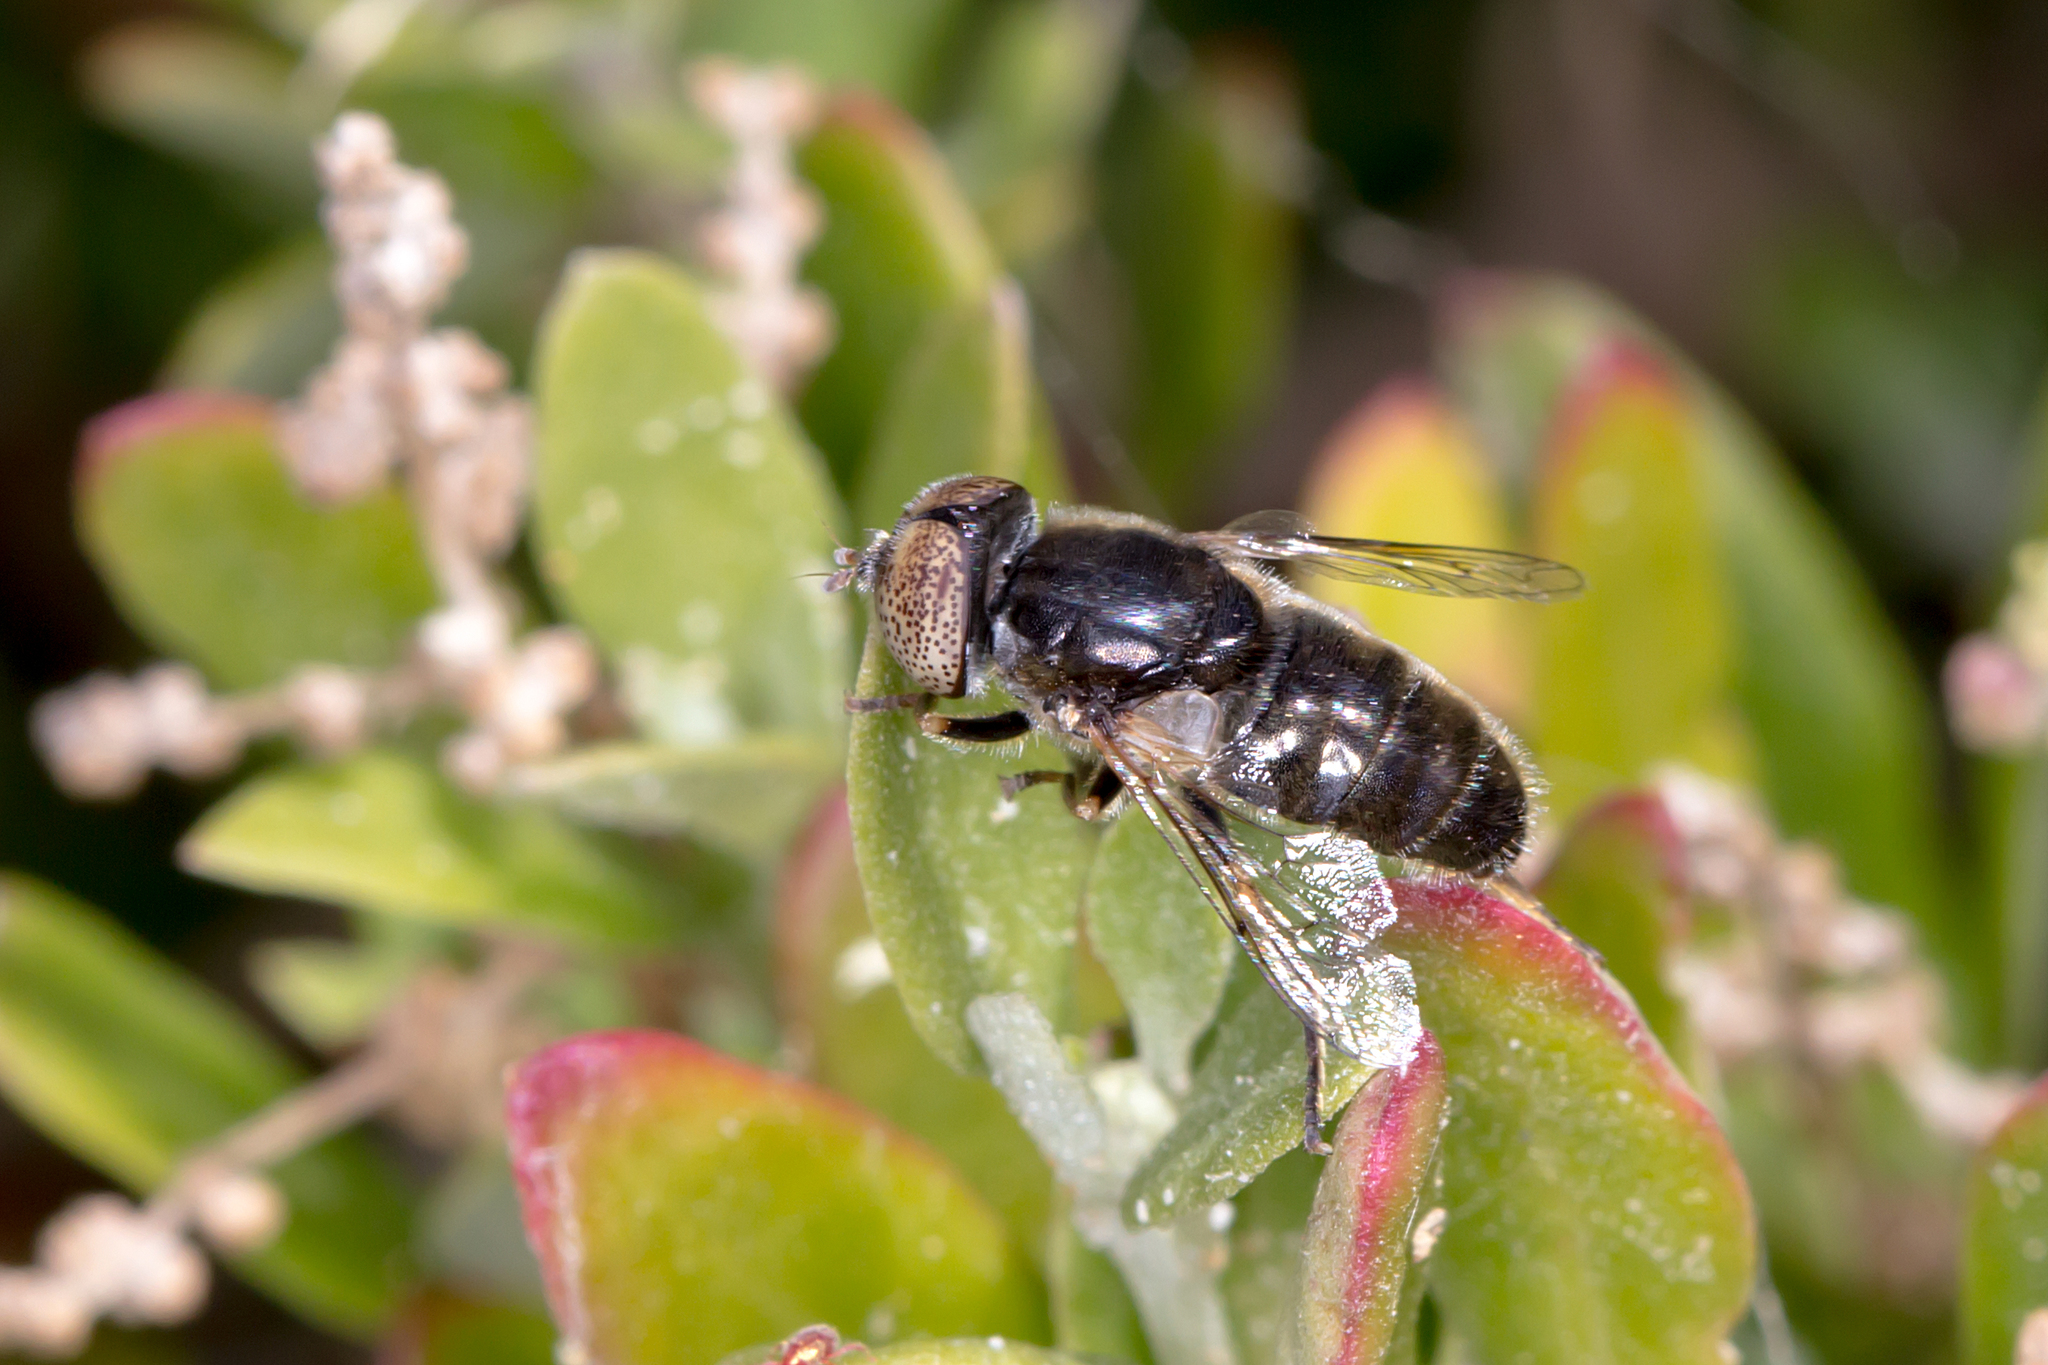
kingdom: Animalia
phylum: Arthropoda
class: Insecta
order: Diptera
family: Syrphidae
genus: Eristalinus
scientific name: Eristalinus aeneus
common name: Syrphid fly
